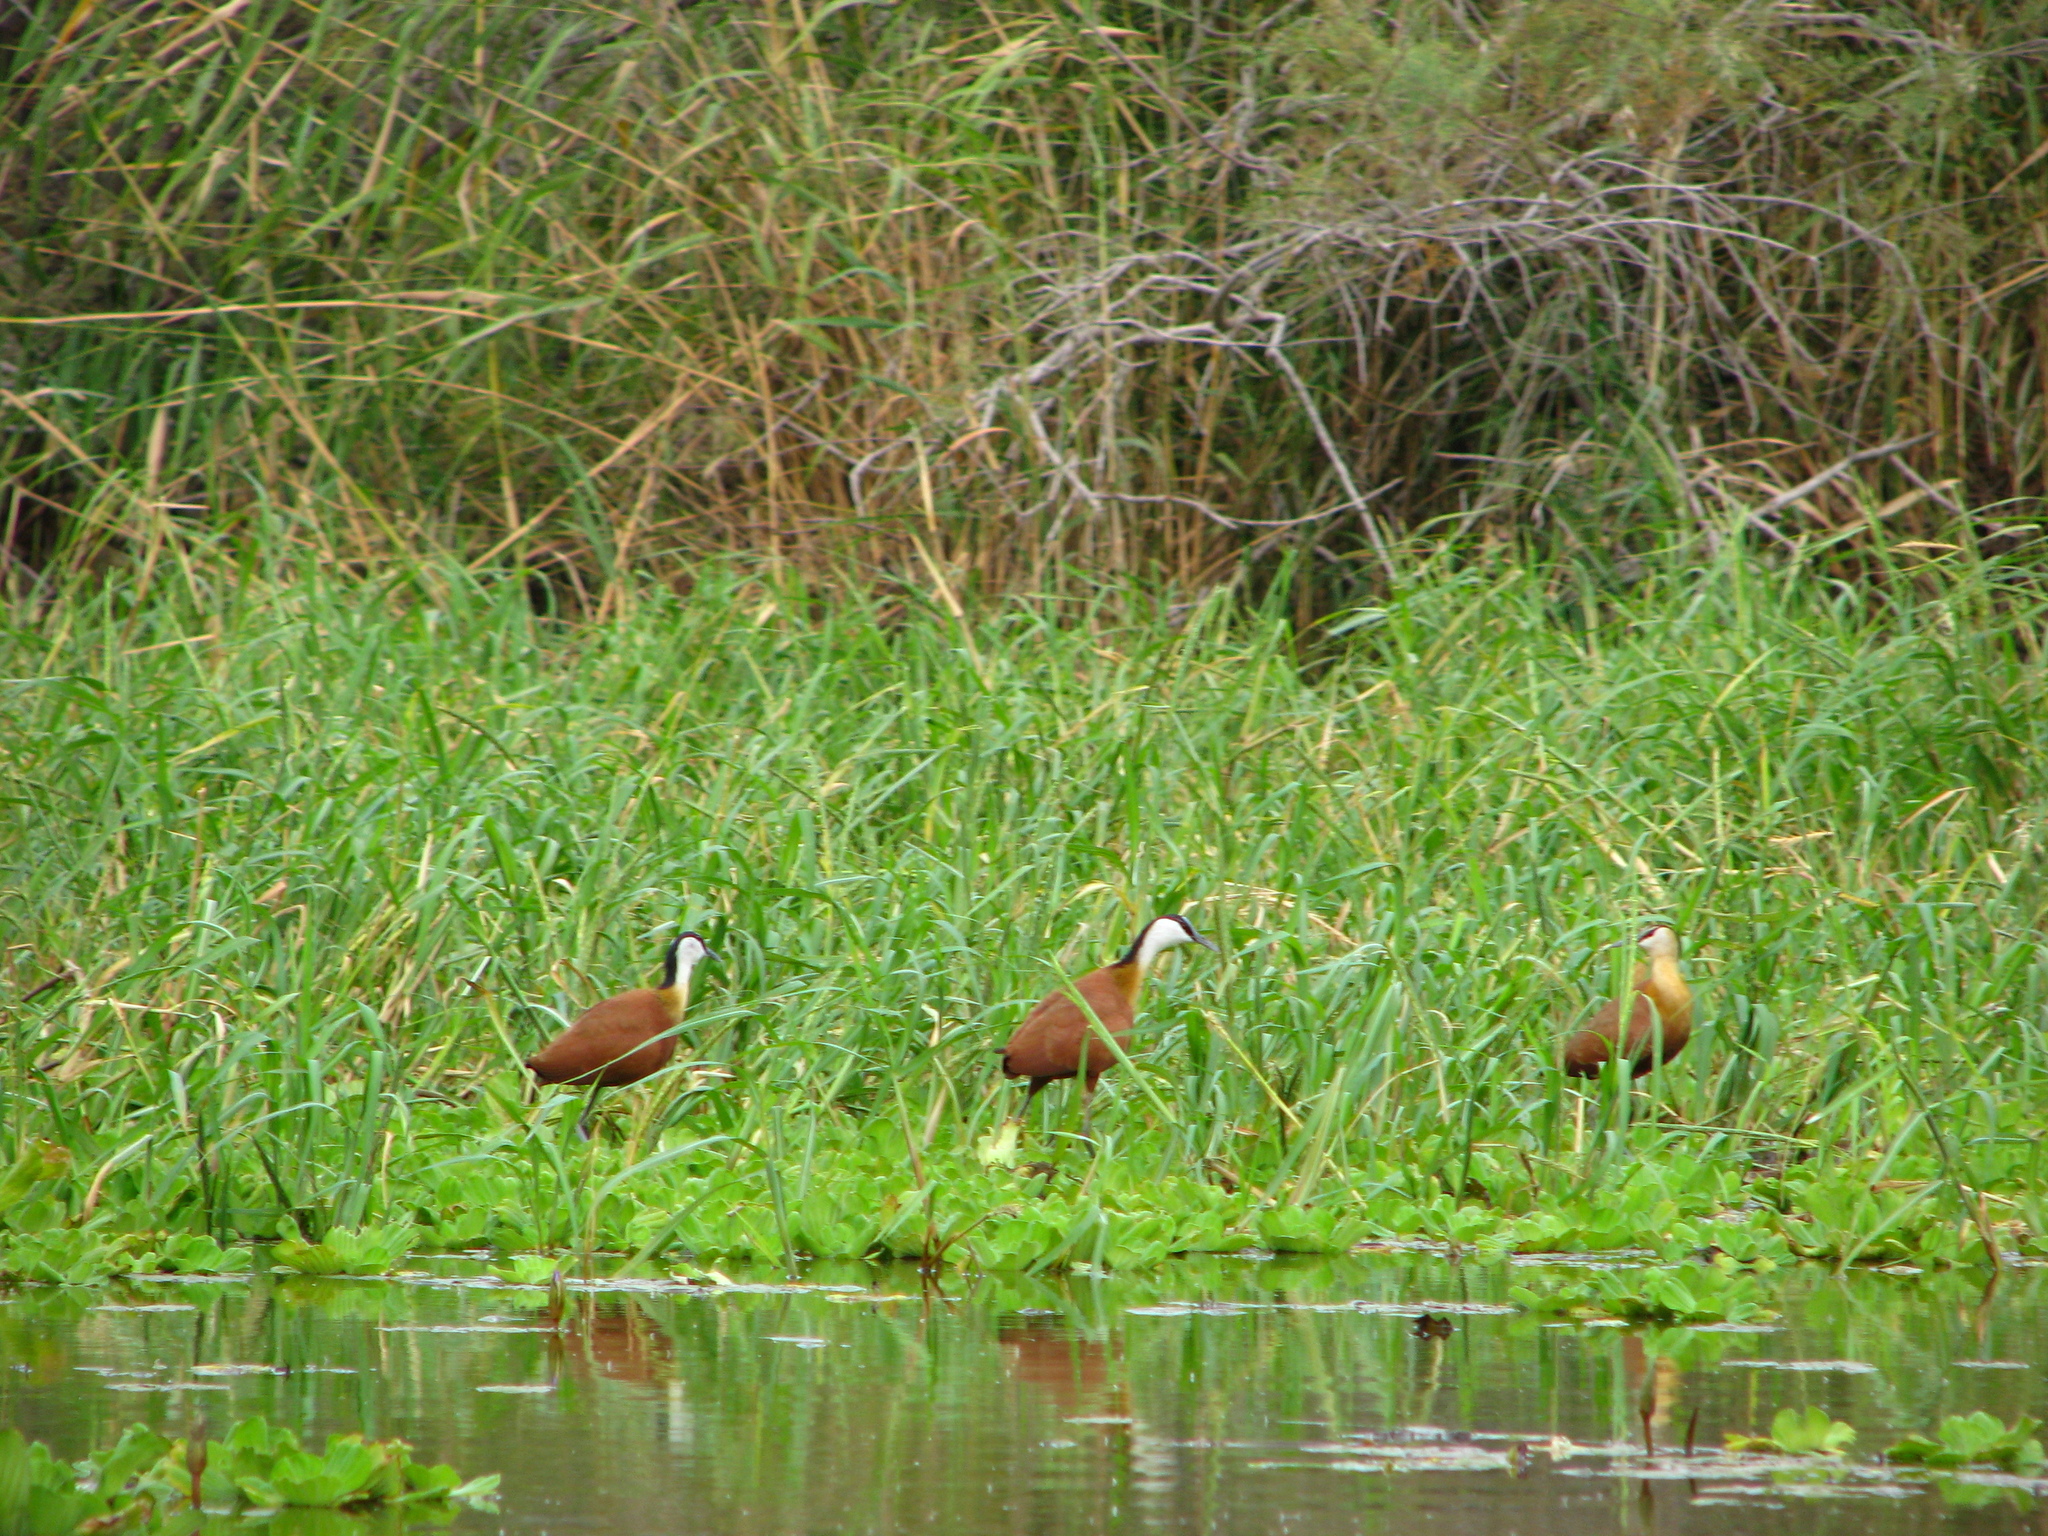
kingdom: Animalia
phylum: Chordata
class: Aves
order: Charadriiformes
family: Jacanidae
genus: Actophilornis
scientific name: Actophilornis africanus
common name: African jacana
